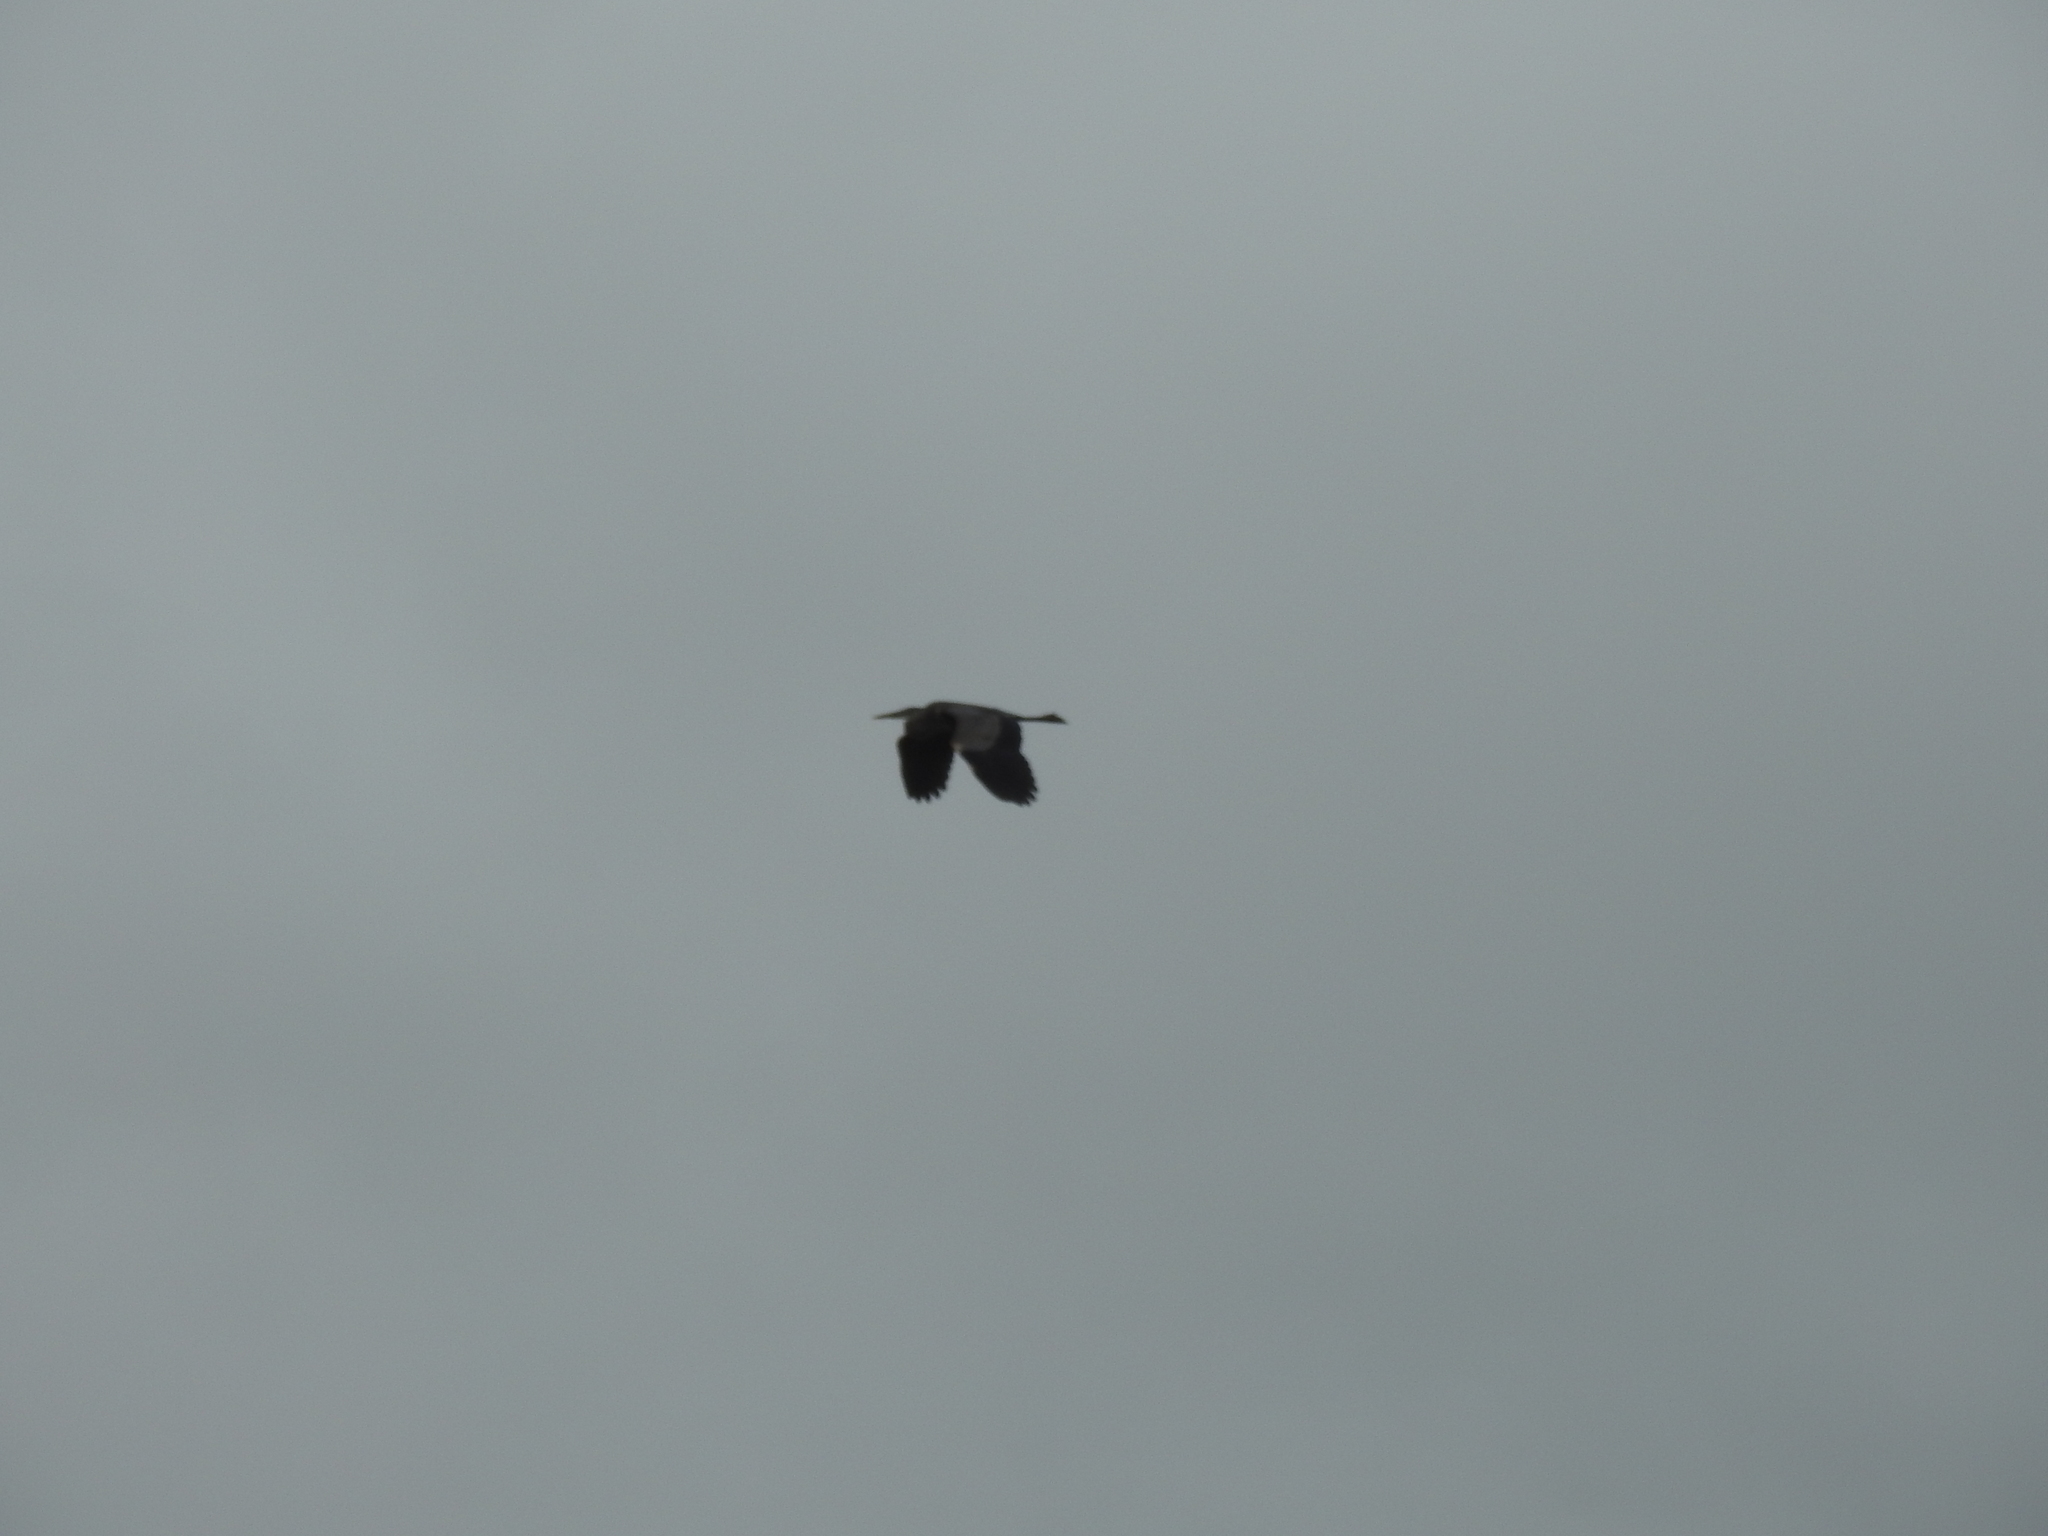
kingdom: Animalia
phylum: Chordata
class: Aves
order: Pelecaniformes
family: Ardeidae
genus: Ardea
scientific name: Ardea herodias
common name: Great blue heron
